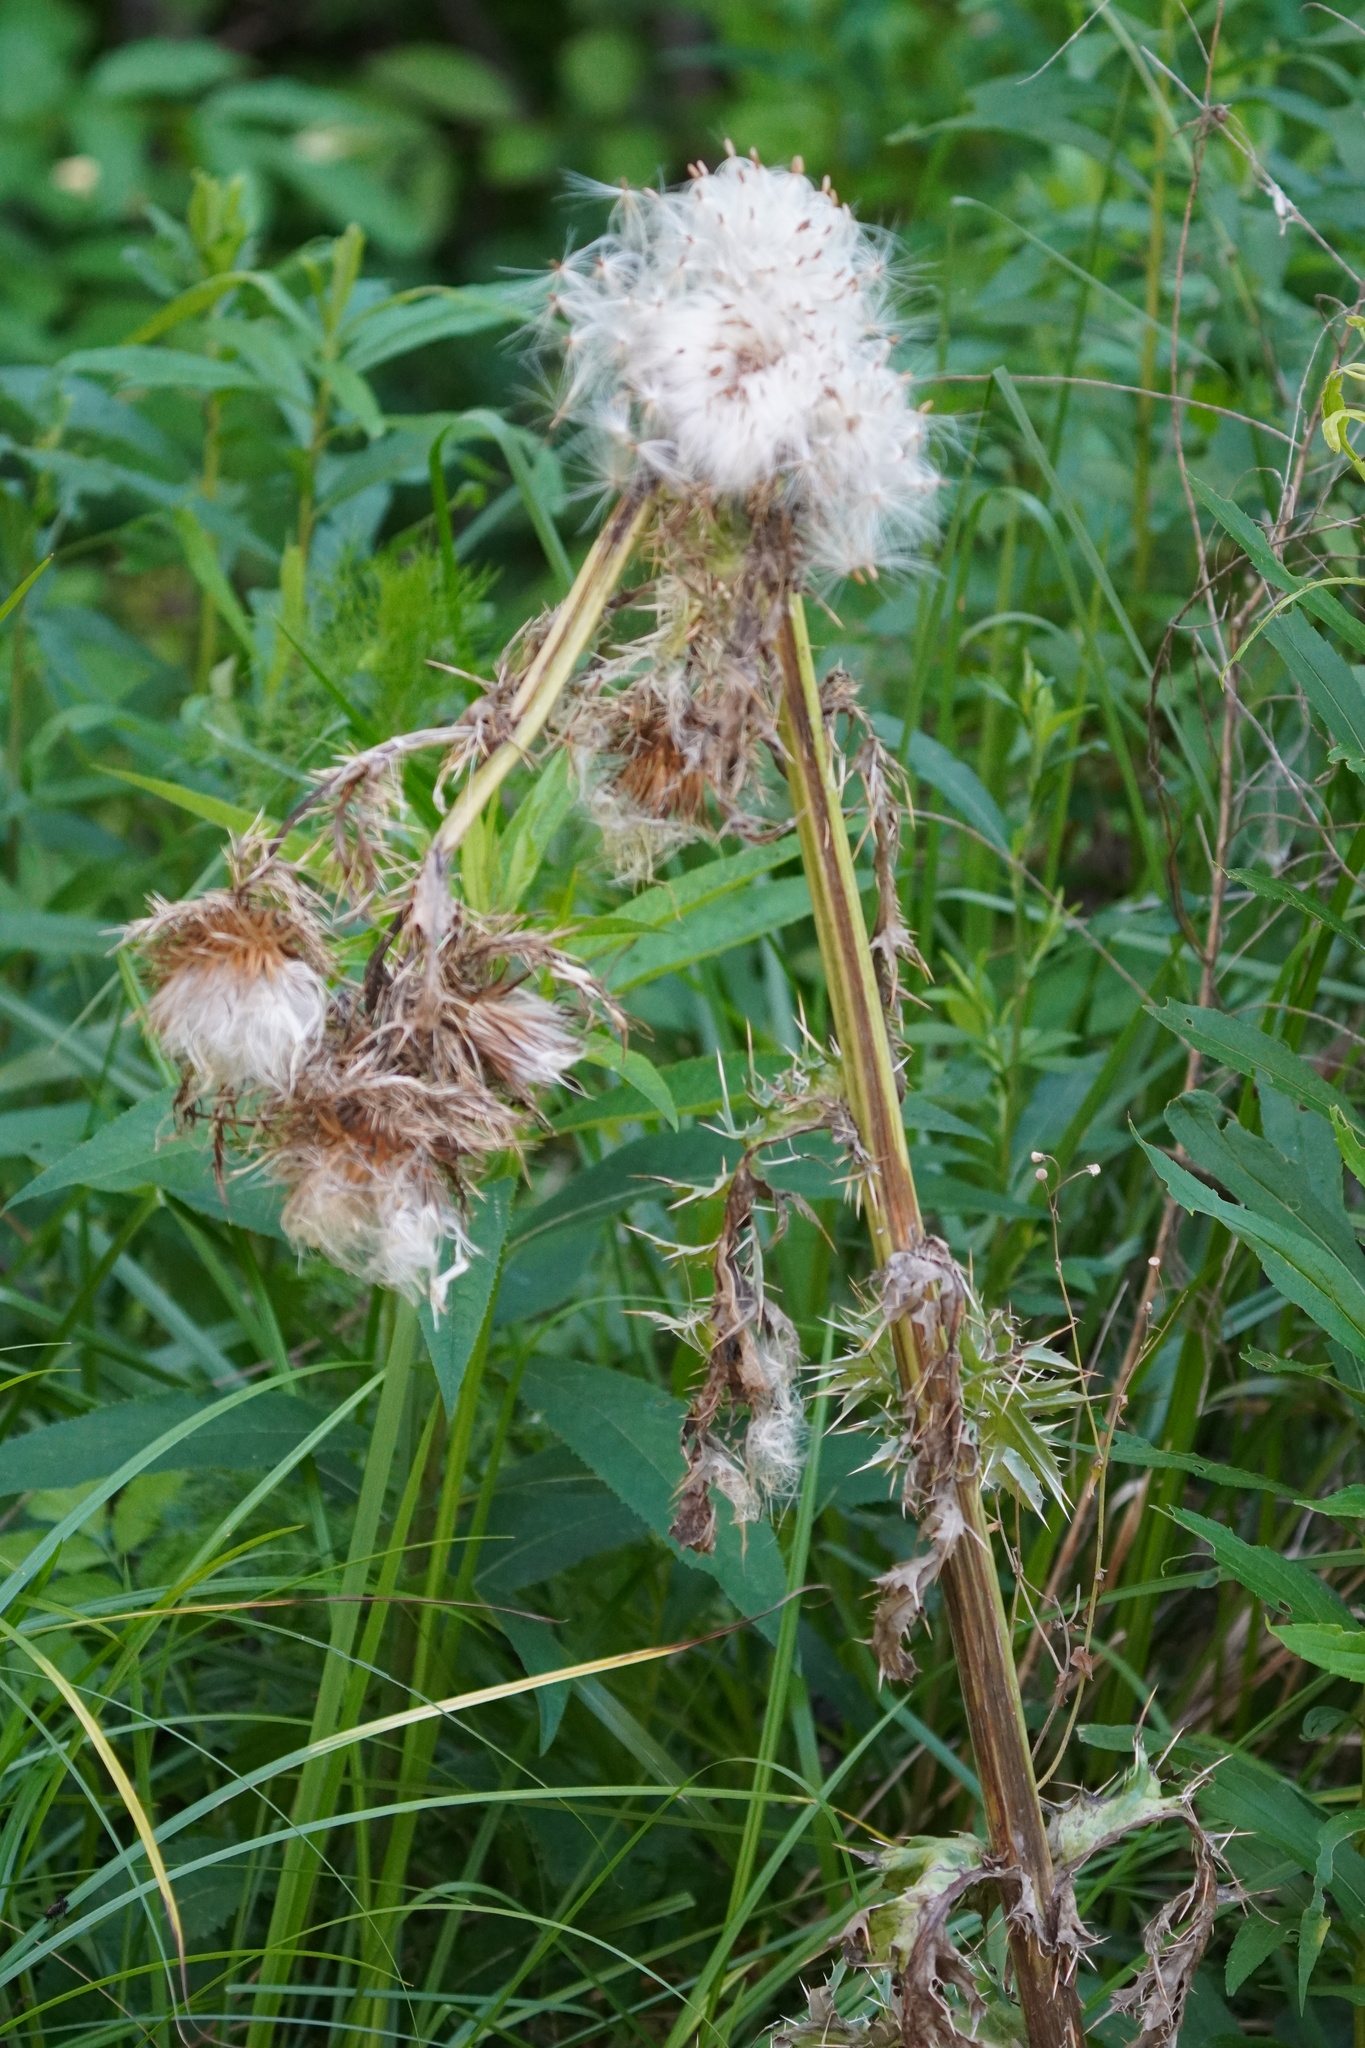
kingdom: Plantae
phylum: Tracheophyta
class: Magnoliopsida
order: Asterales
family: Asteraceae
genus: Cirsium
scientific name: Cirsium horridulum
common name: Bristly thistle
